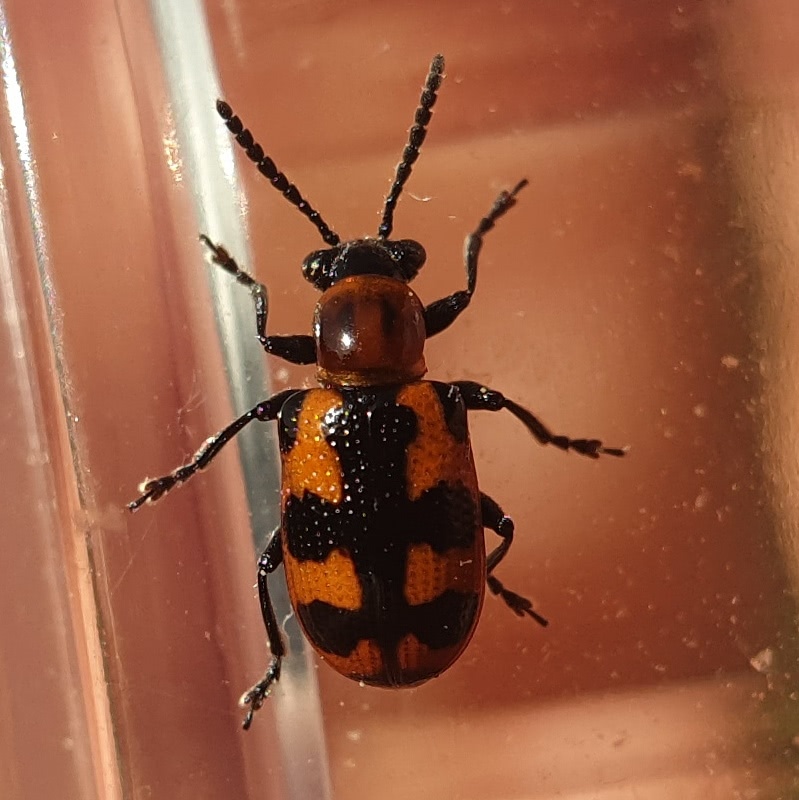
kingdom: Animalia
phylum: Arthropoda
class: Insecta
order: Coleoptera
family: Chrysomelidae
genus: Crioceris
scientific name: Crioceris bicruciata
